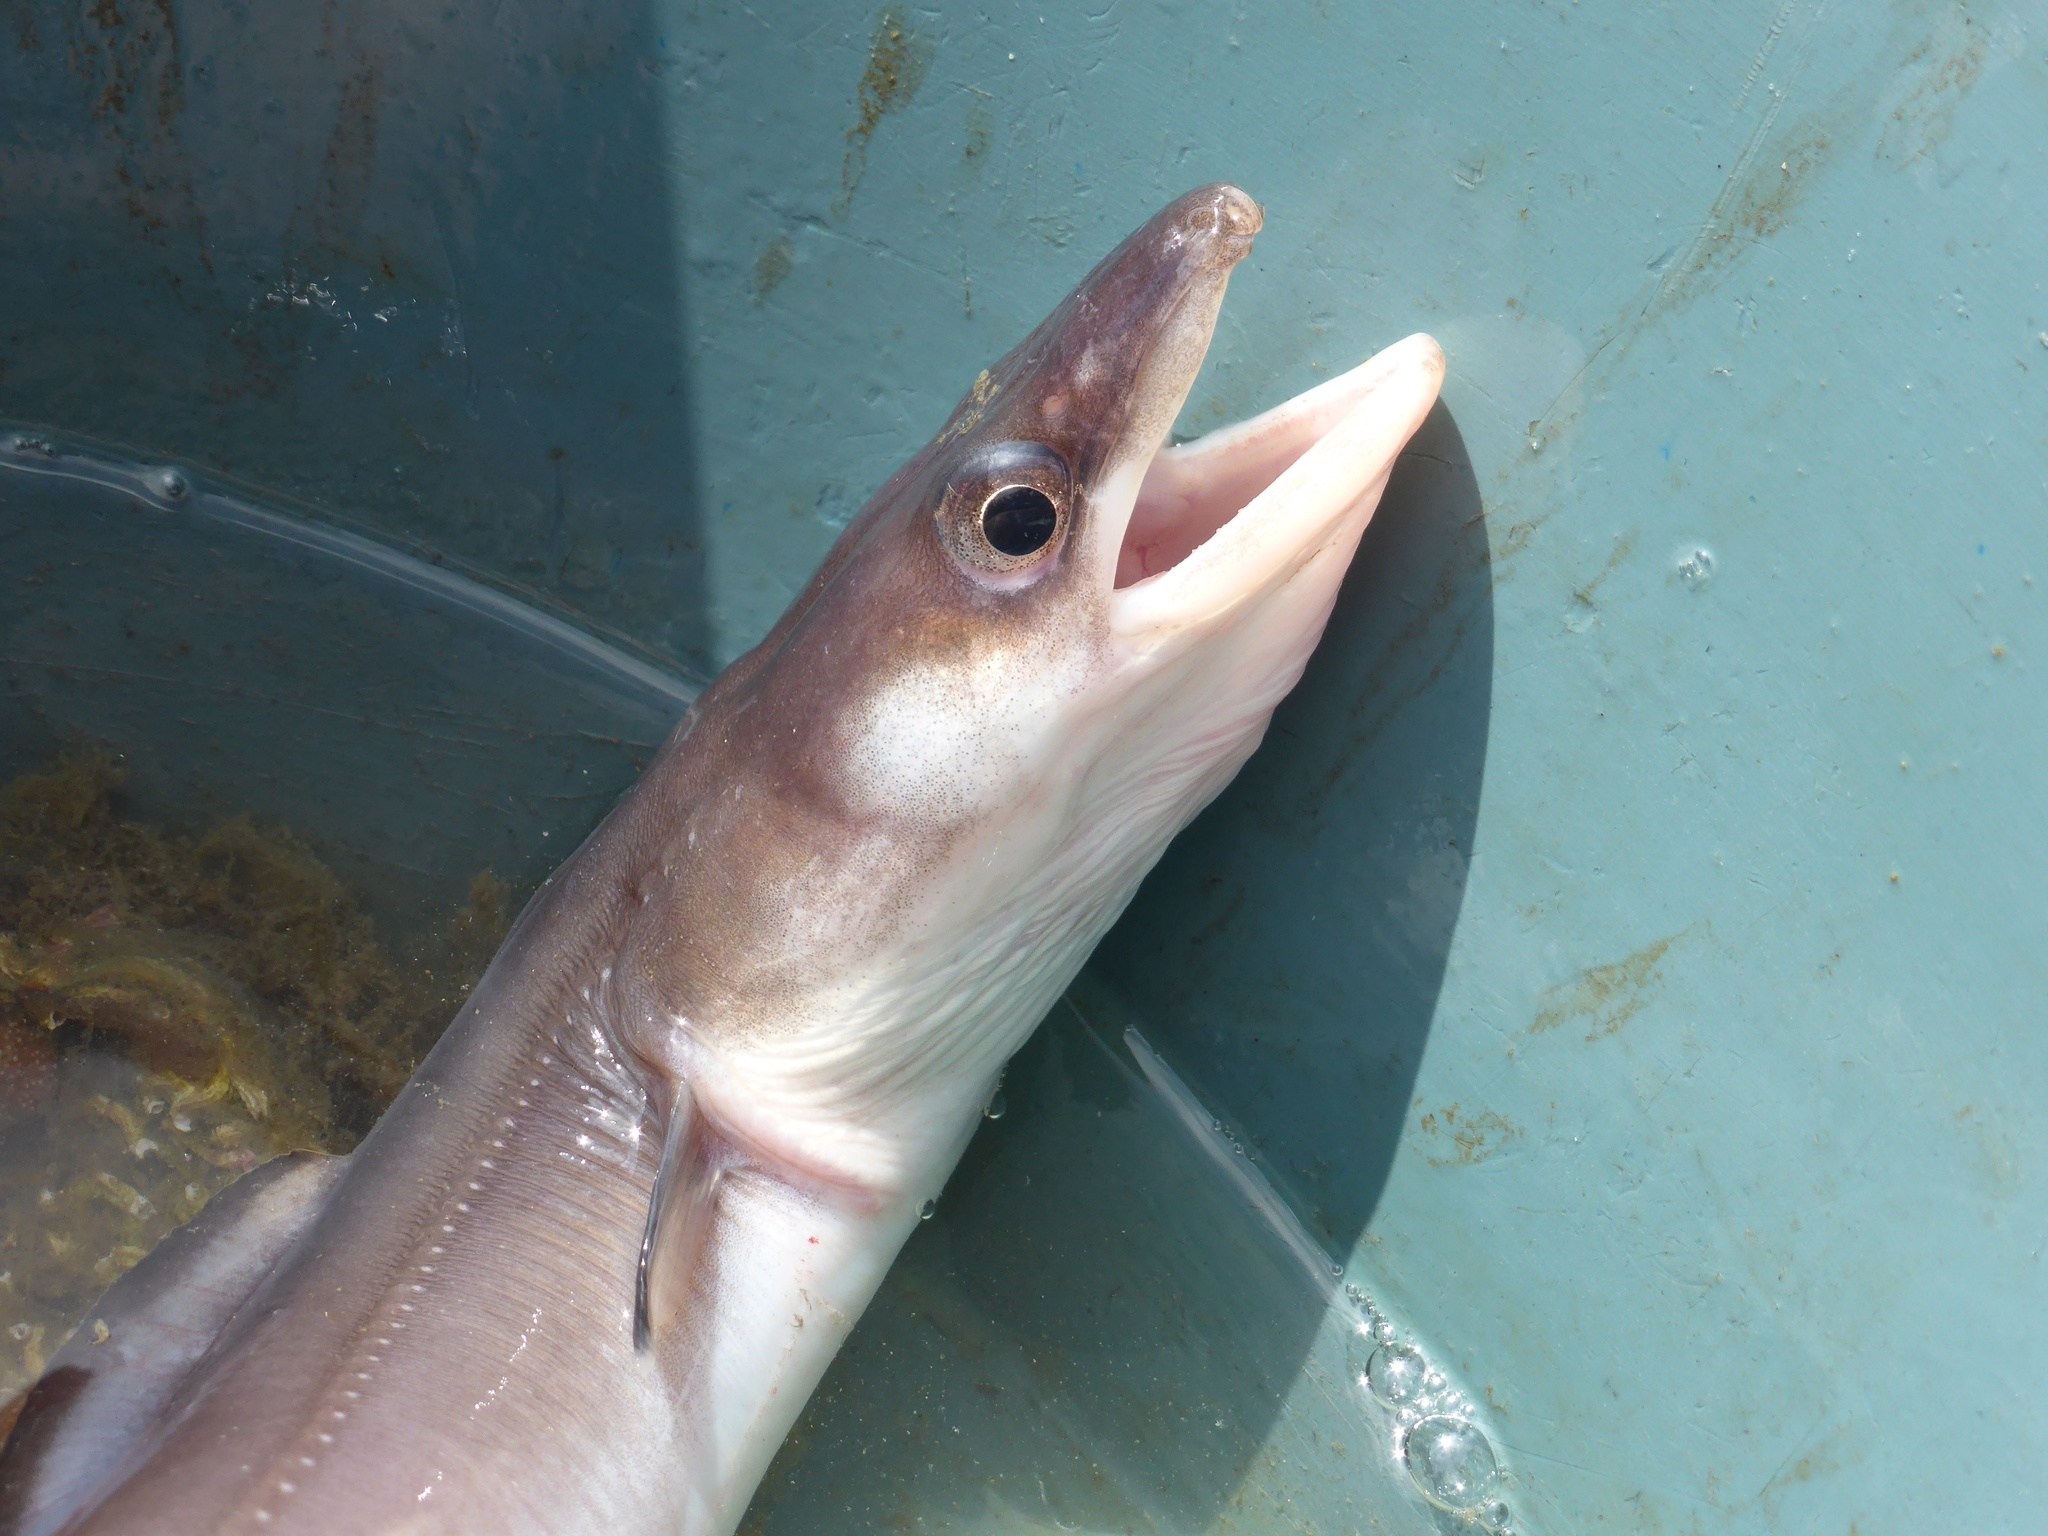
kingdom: Animalia
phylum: Chordata
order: Anguilliformes
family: Congridae
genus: Conger
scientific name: Conger conger
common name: Conger eel
